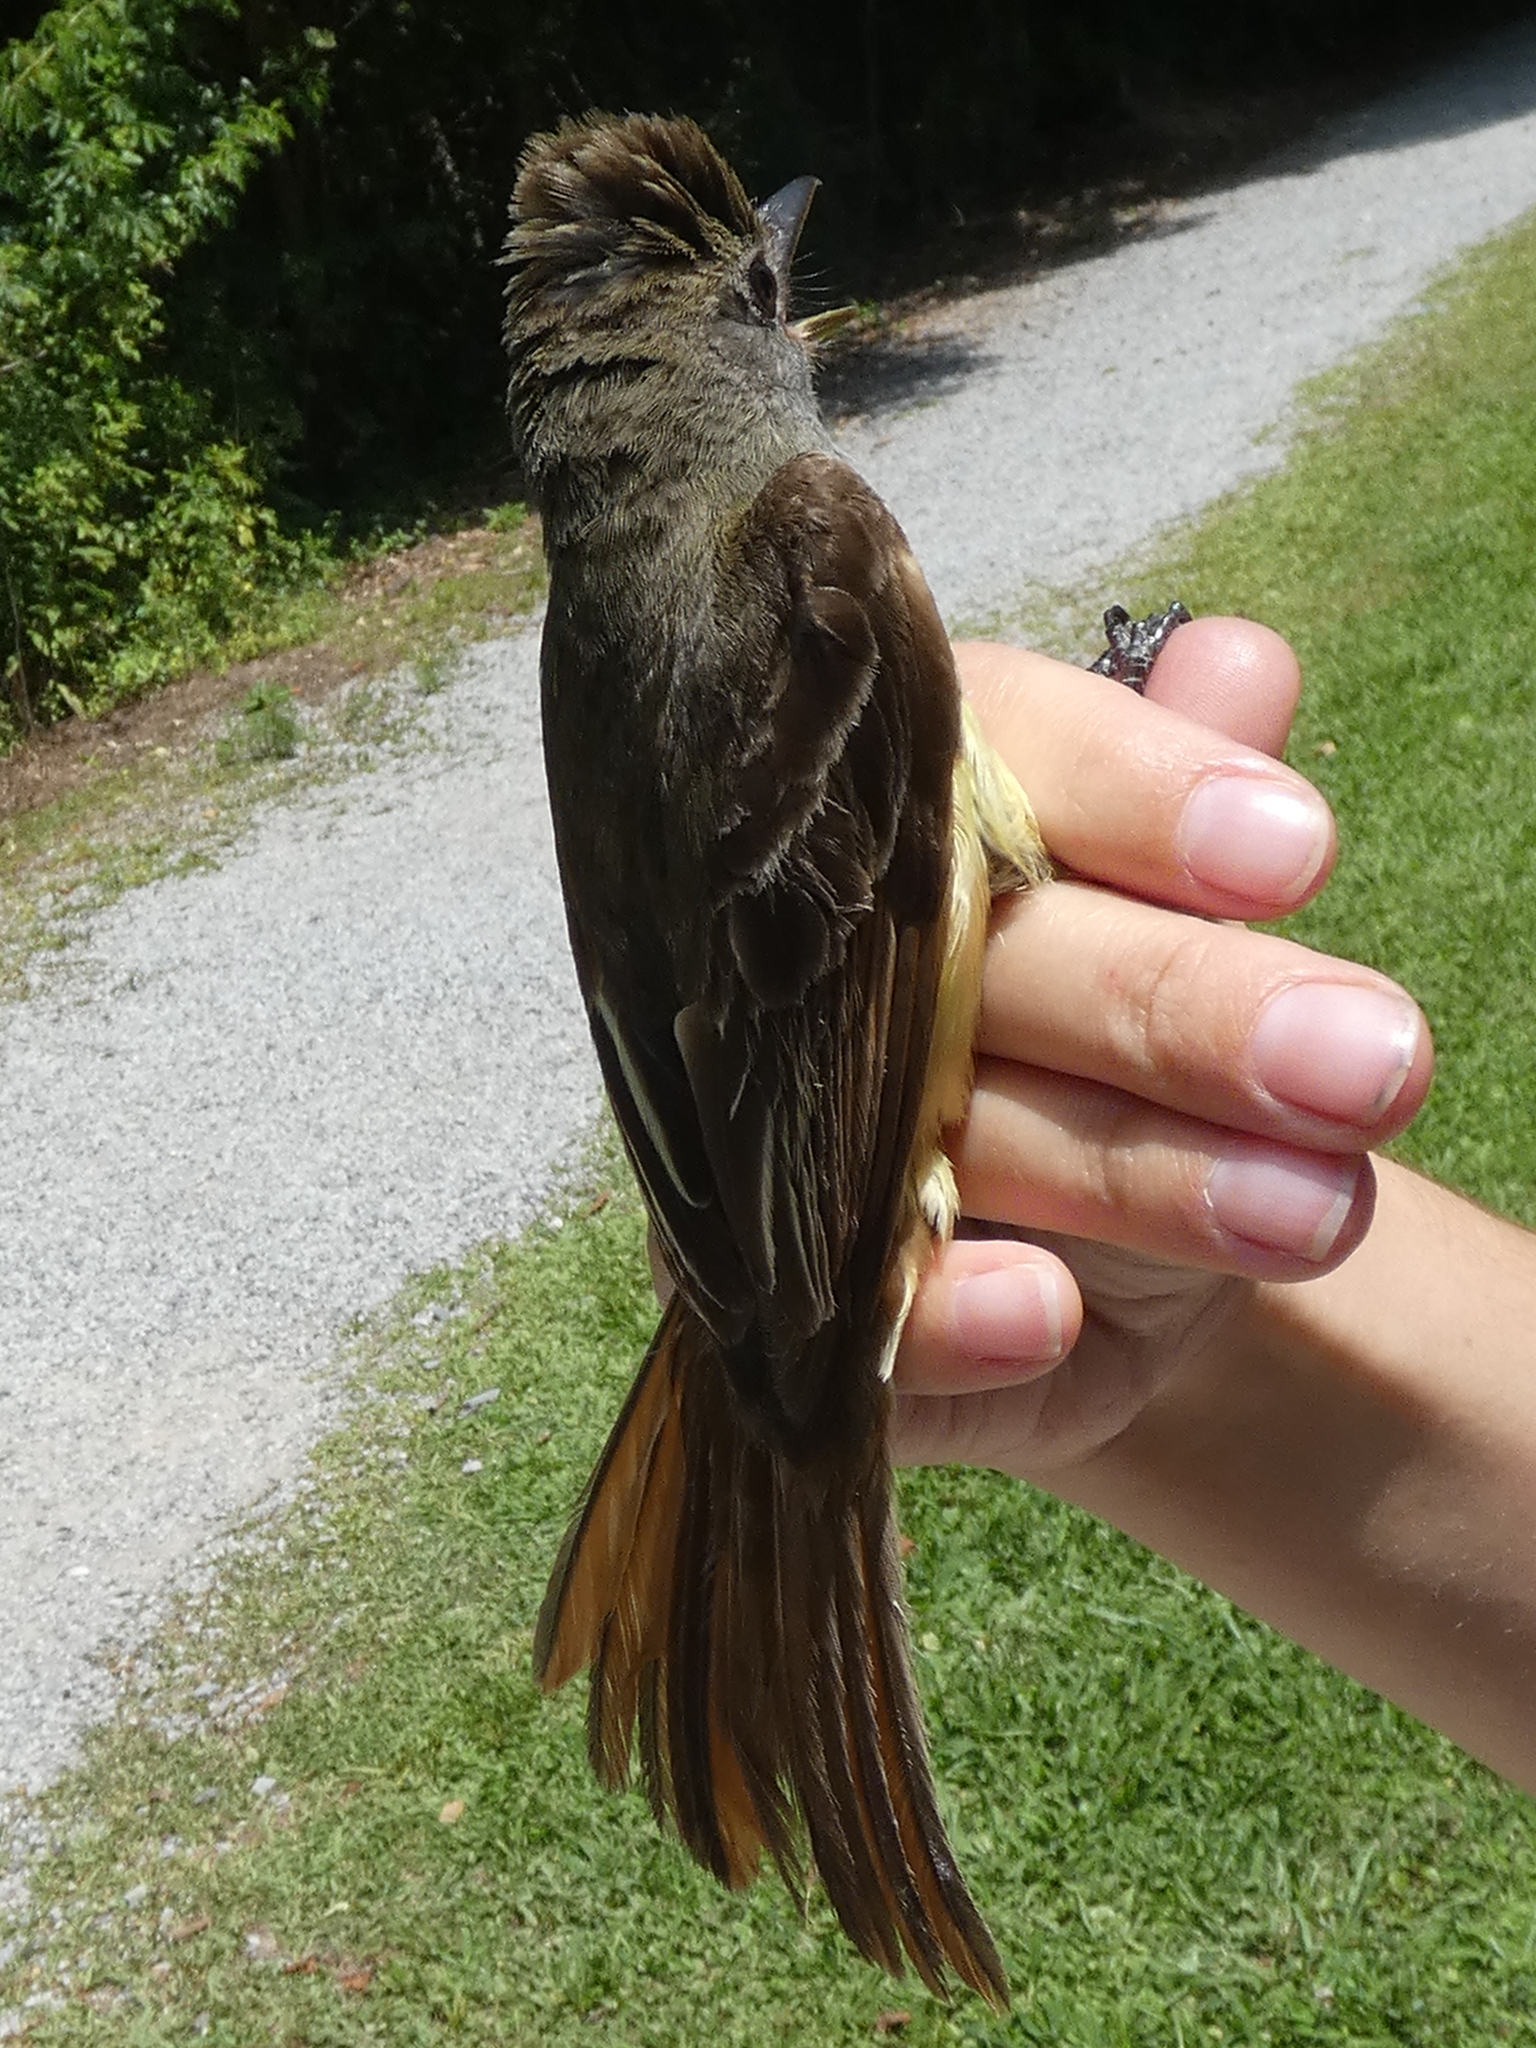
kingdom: Animalia
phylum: Chordata
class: Aves
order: Passeriformes
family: Tyrannidae
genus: Myiarchus
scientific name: Myiarchus crinitus
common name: Great crested flycatcher
